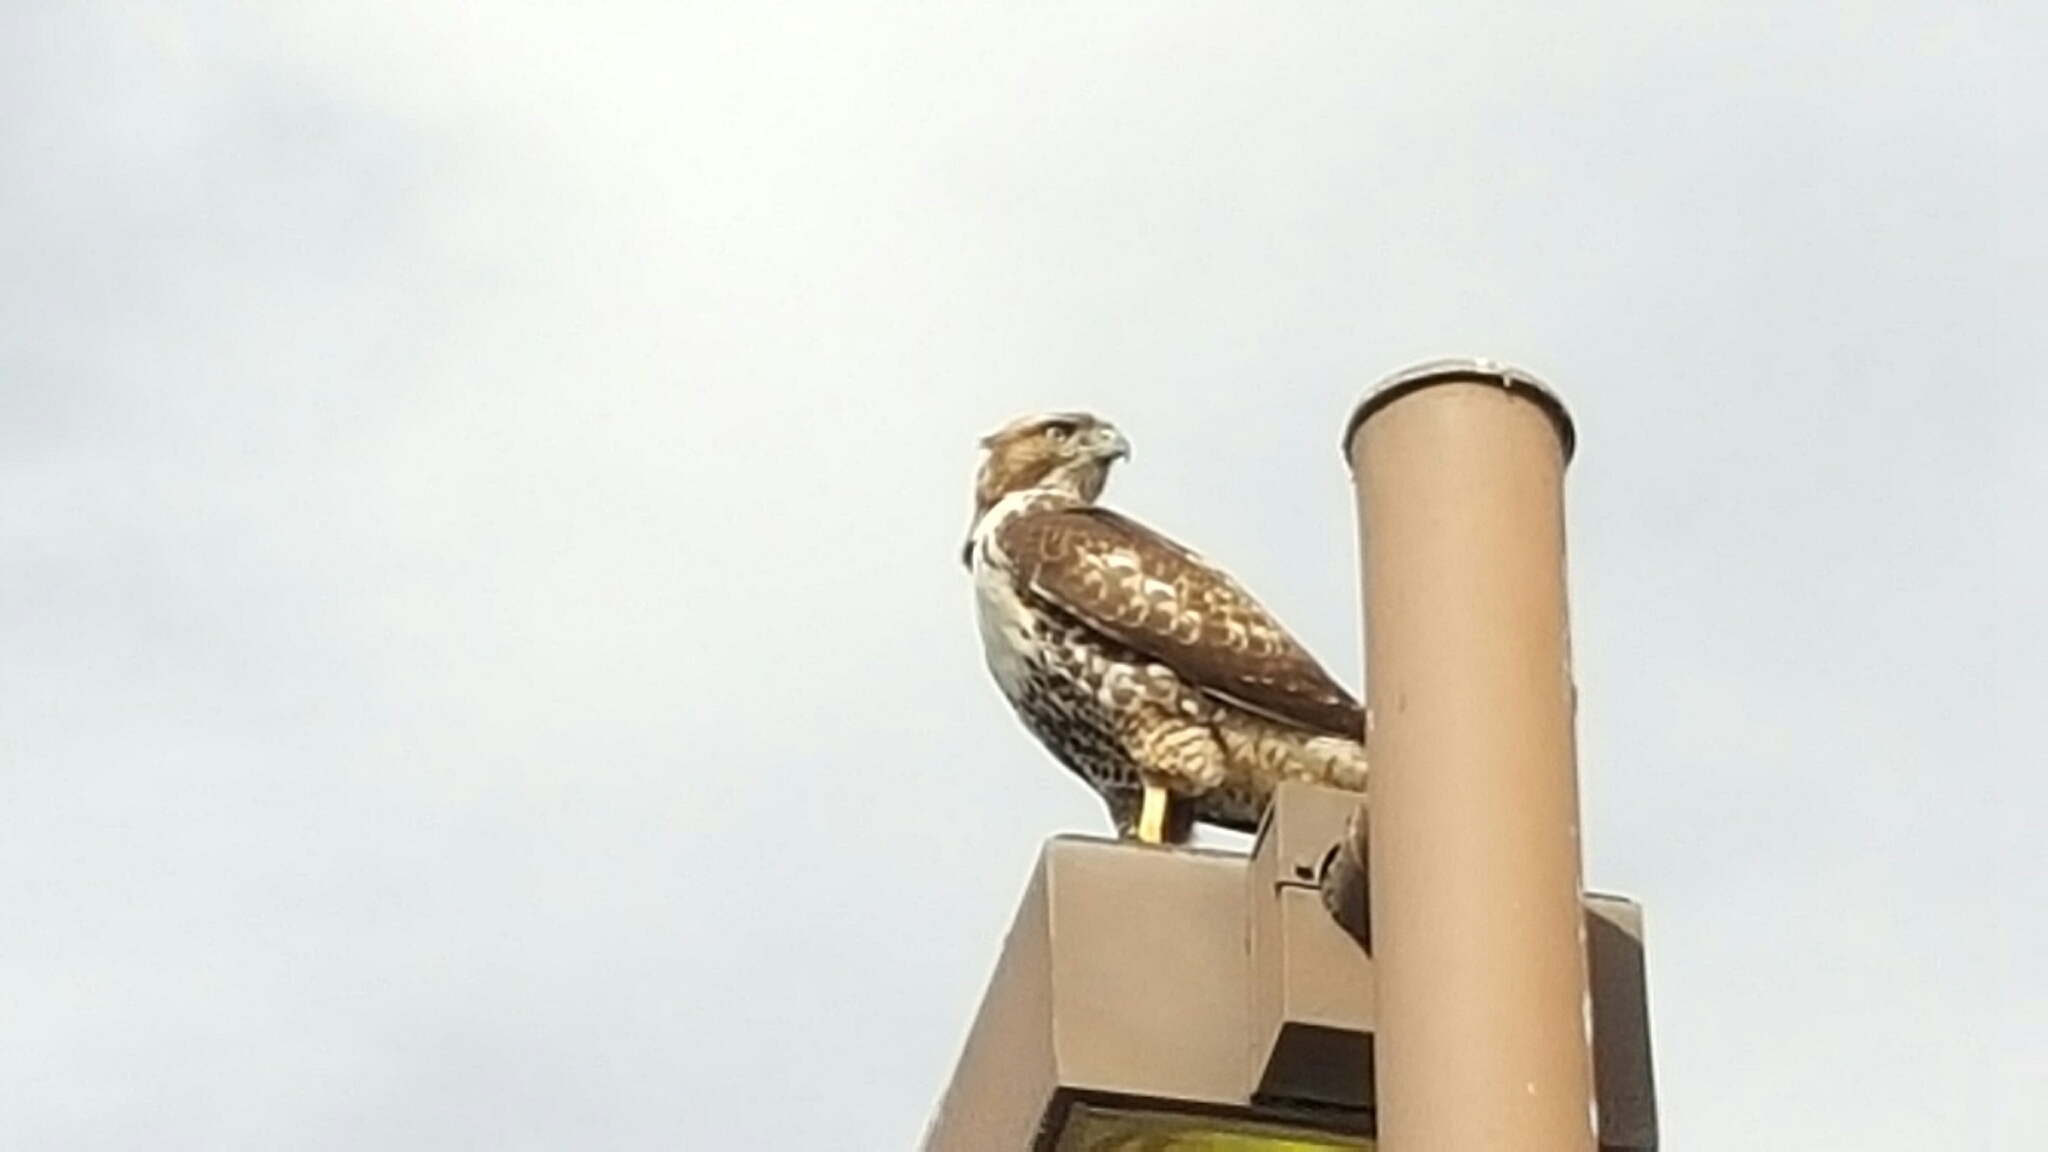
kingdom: Animalia
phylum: Chordata
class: Aves
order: Accipitriformes
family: Accipitridae
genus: Buteo
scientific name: Buteo jamaicensis
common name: Red-tailed hawk
